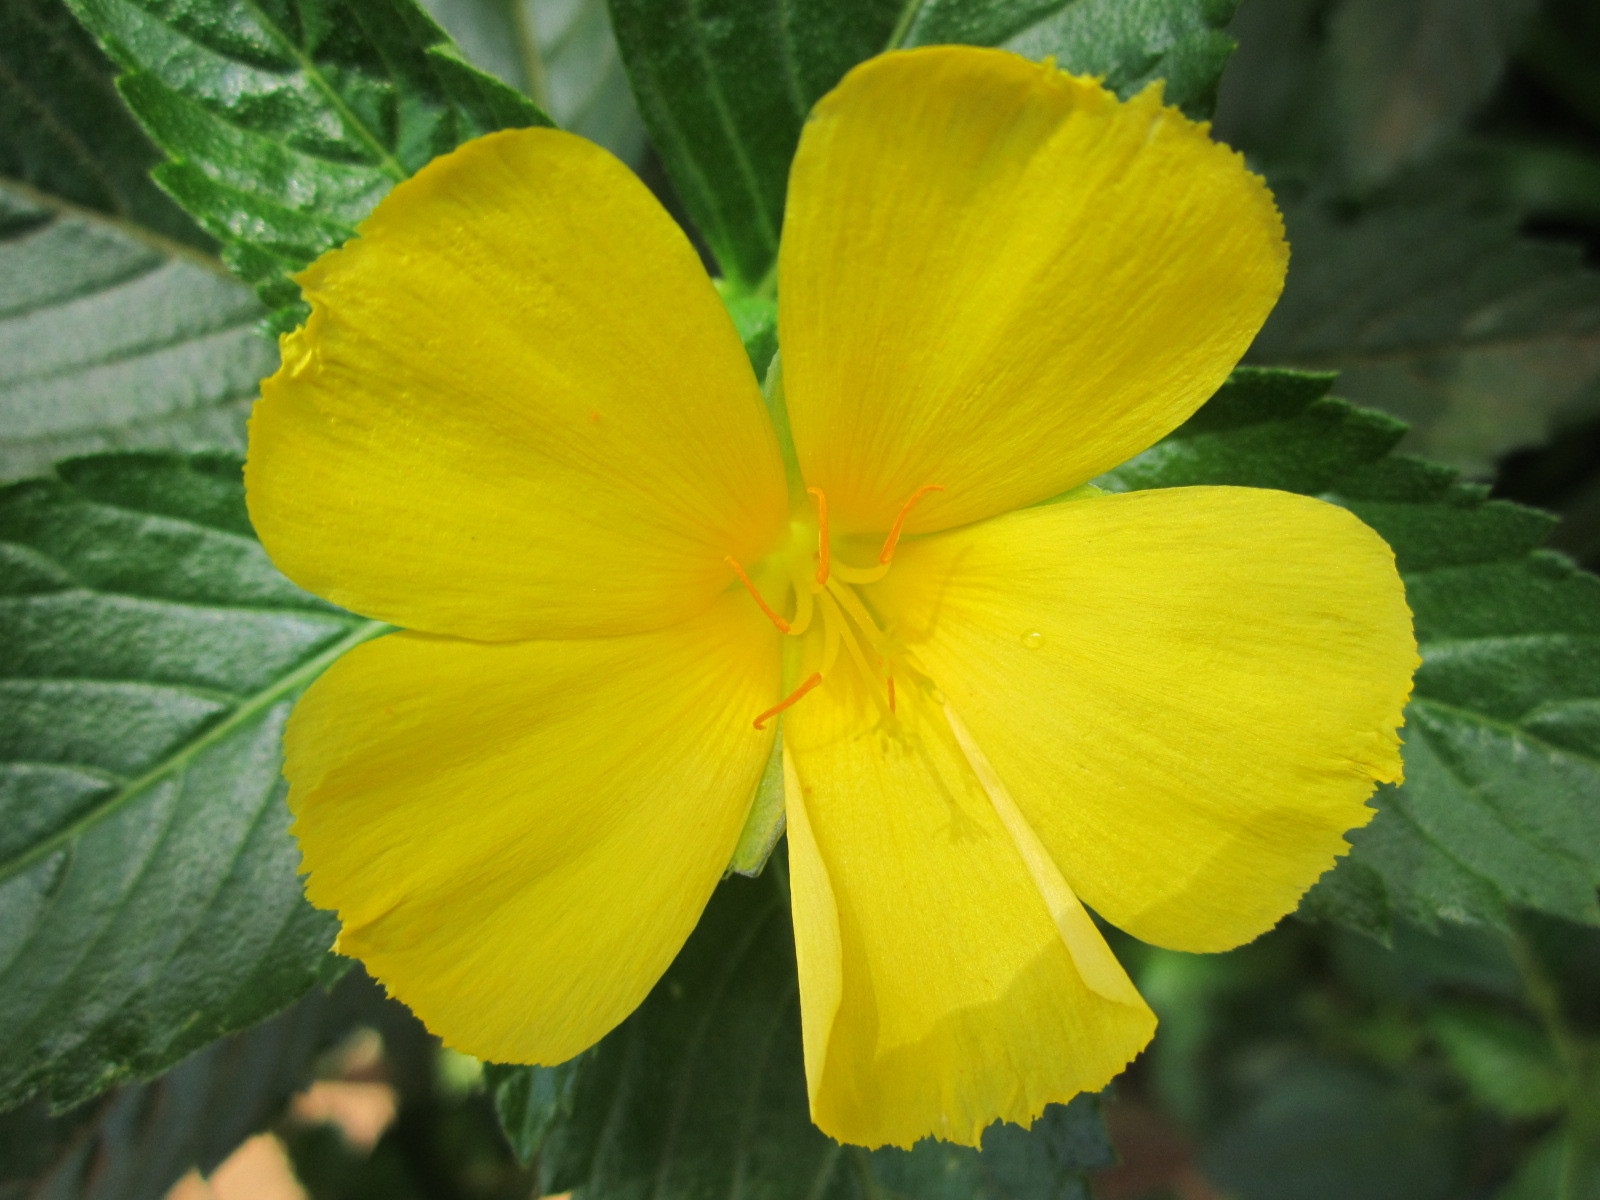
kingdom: Plantae
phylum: Tracheophyta
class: Magnoliopsida
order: Malpighiales
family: Turneraceae
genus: Turnera
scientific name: Turnera ulmifolia
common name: Ramgoat dashalong
